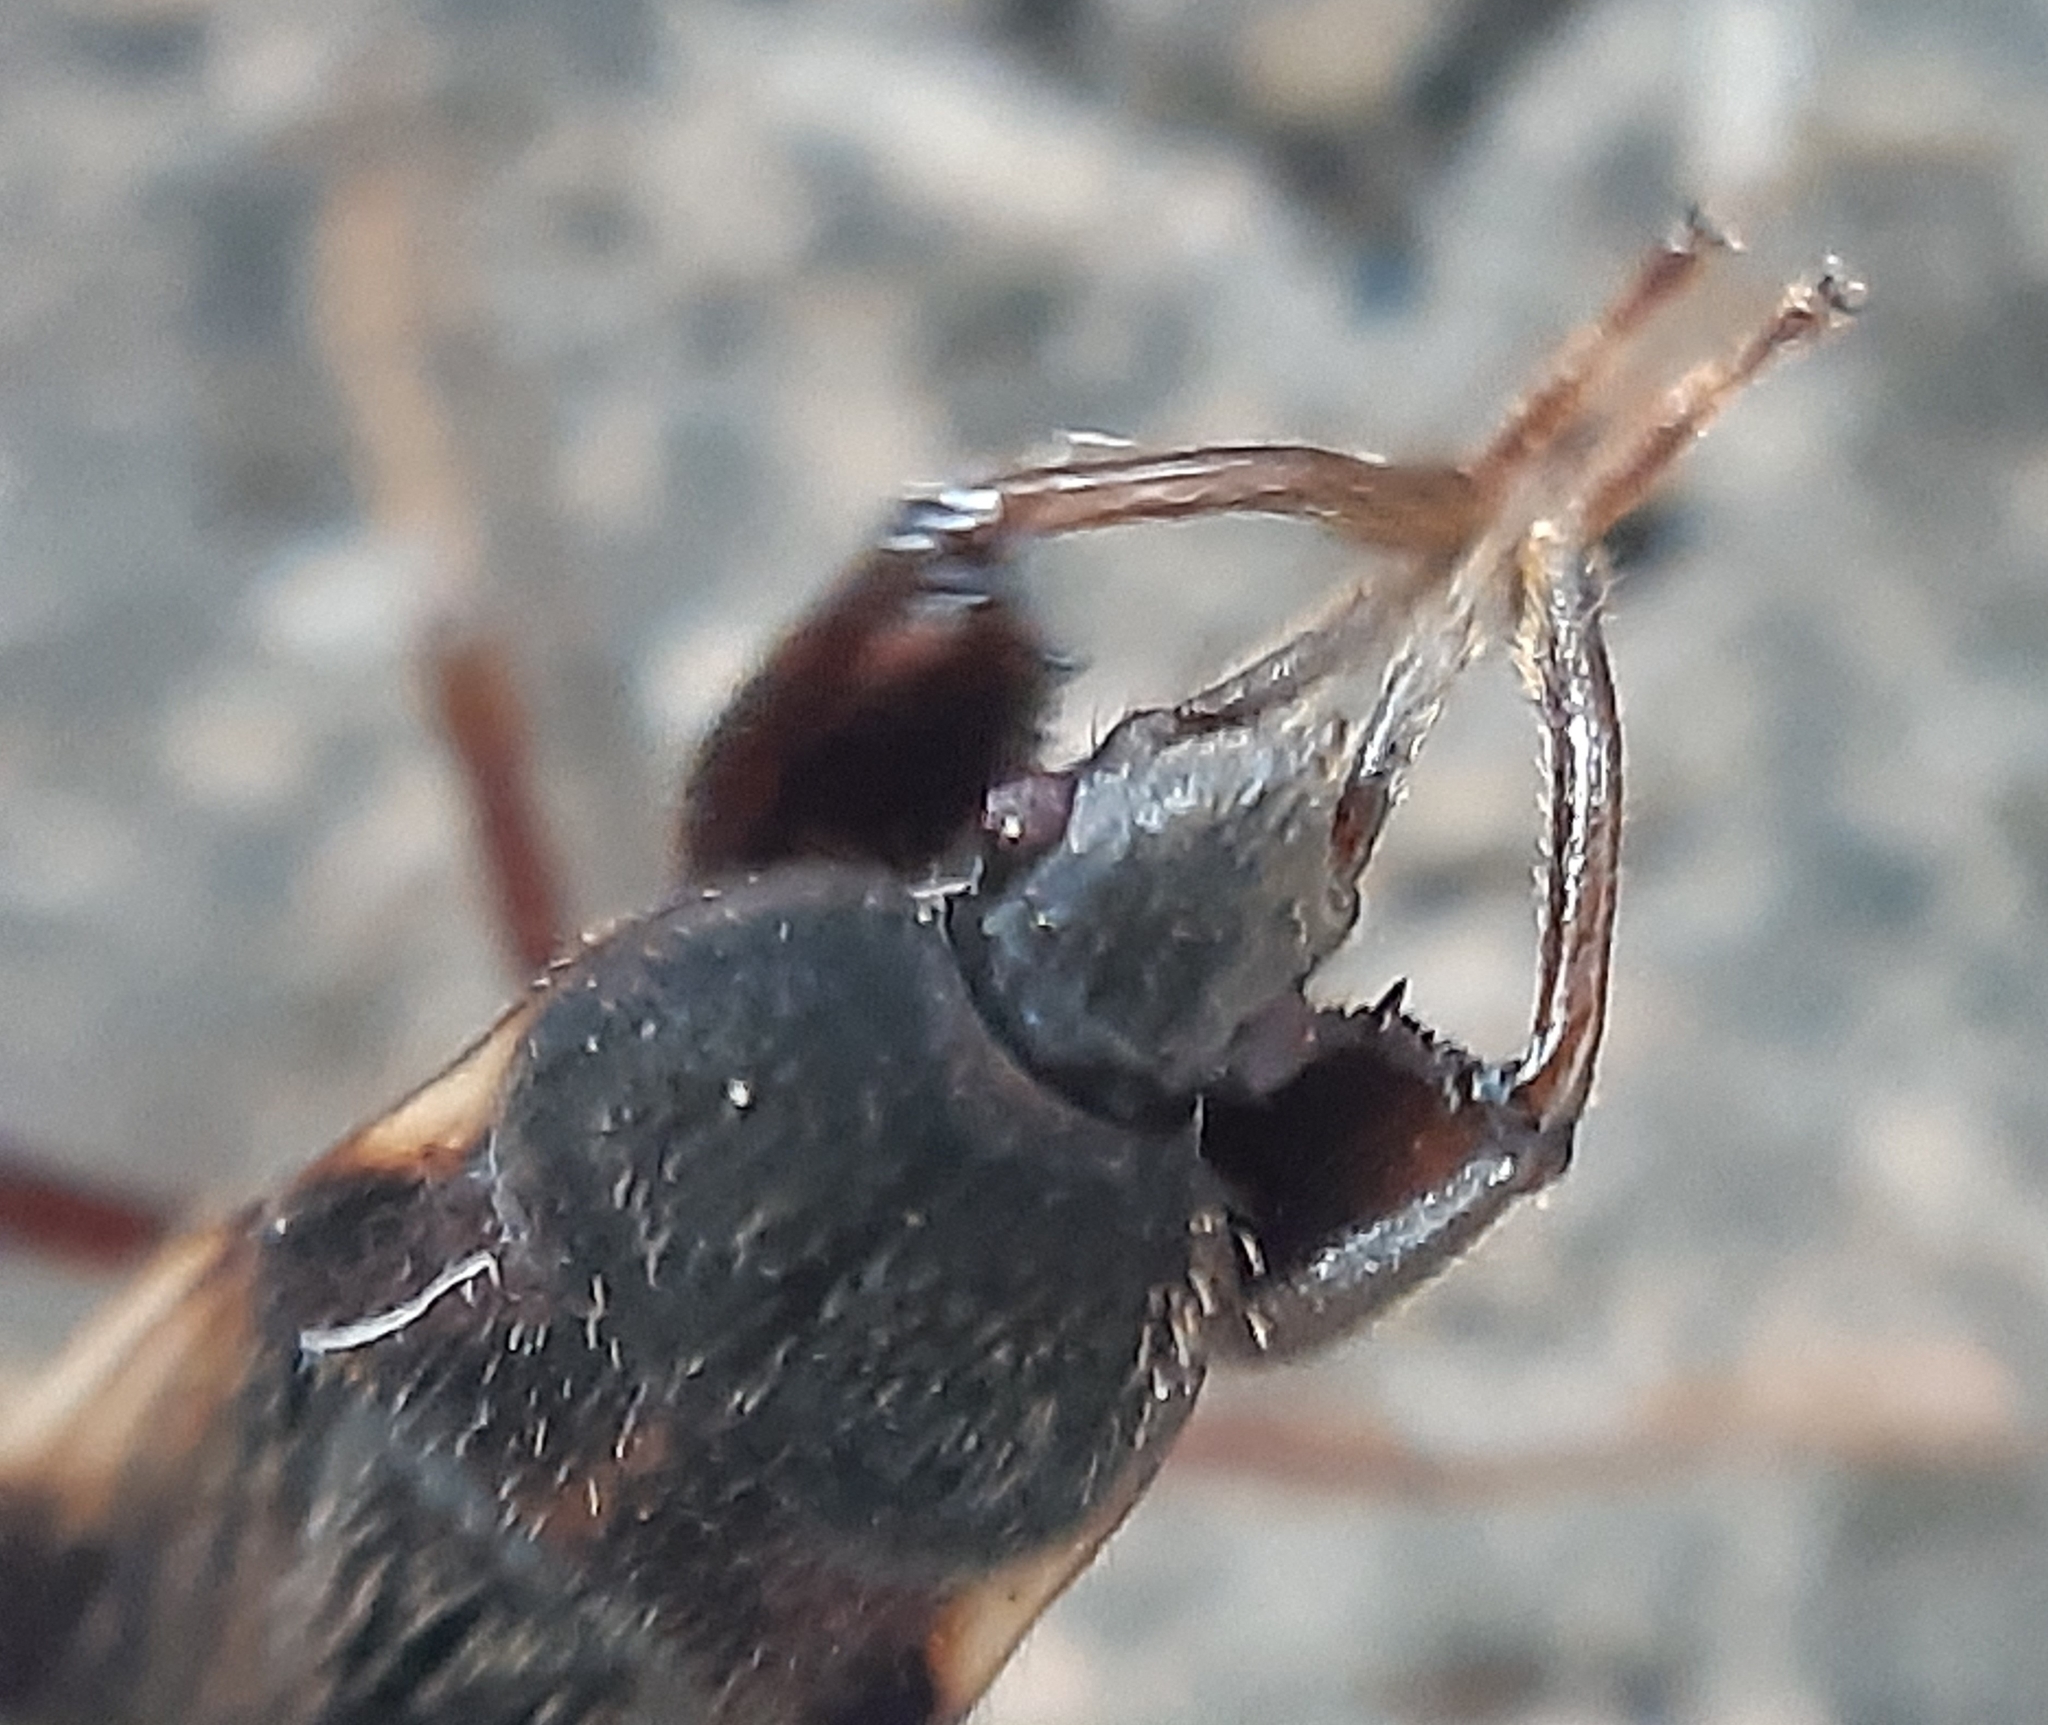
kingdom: Animalia
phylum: Arthropoda
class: Insecta
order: Hemiptera
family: Rhyparochromidae
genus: Eremocoris
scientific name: Eremocoris podagricus
